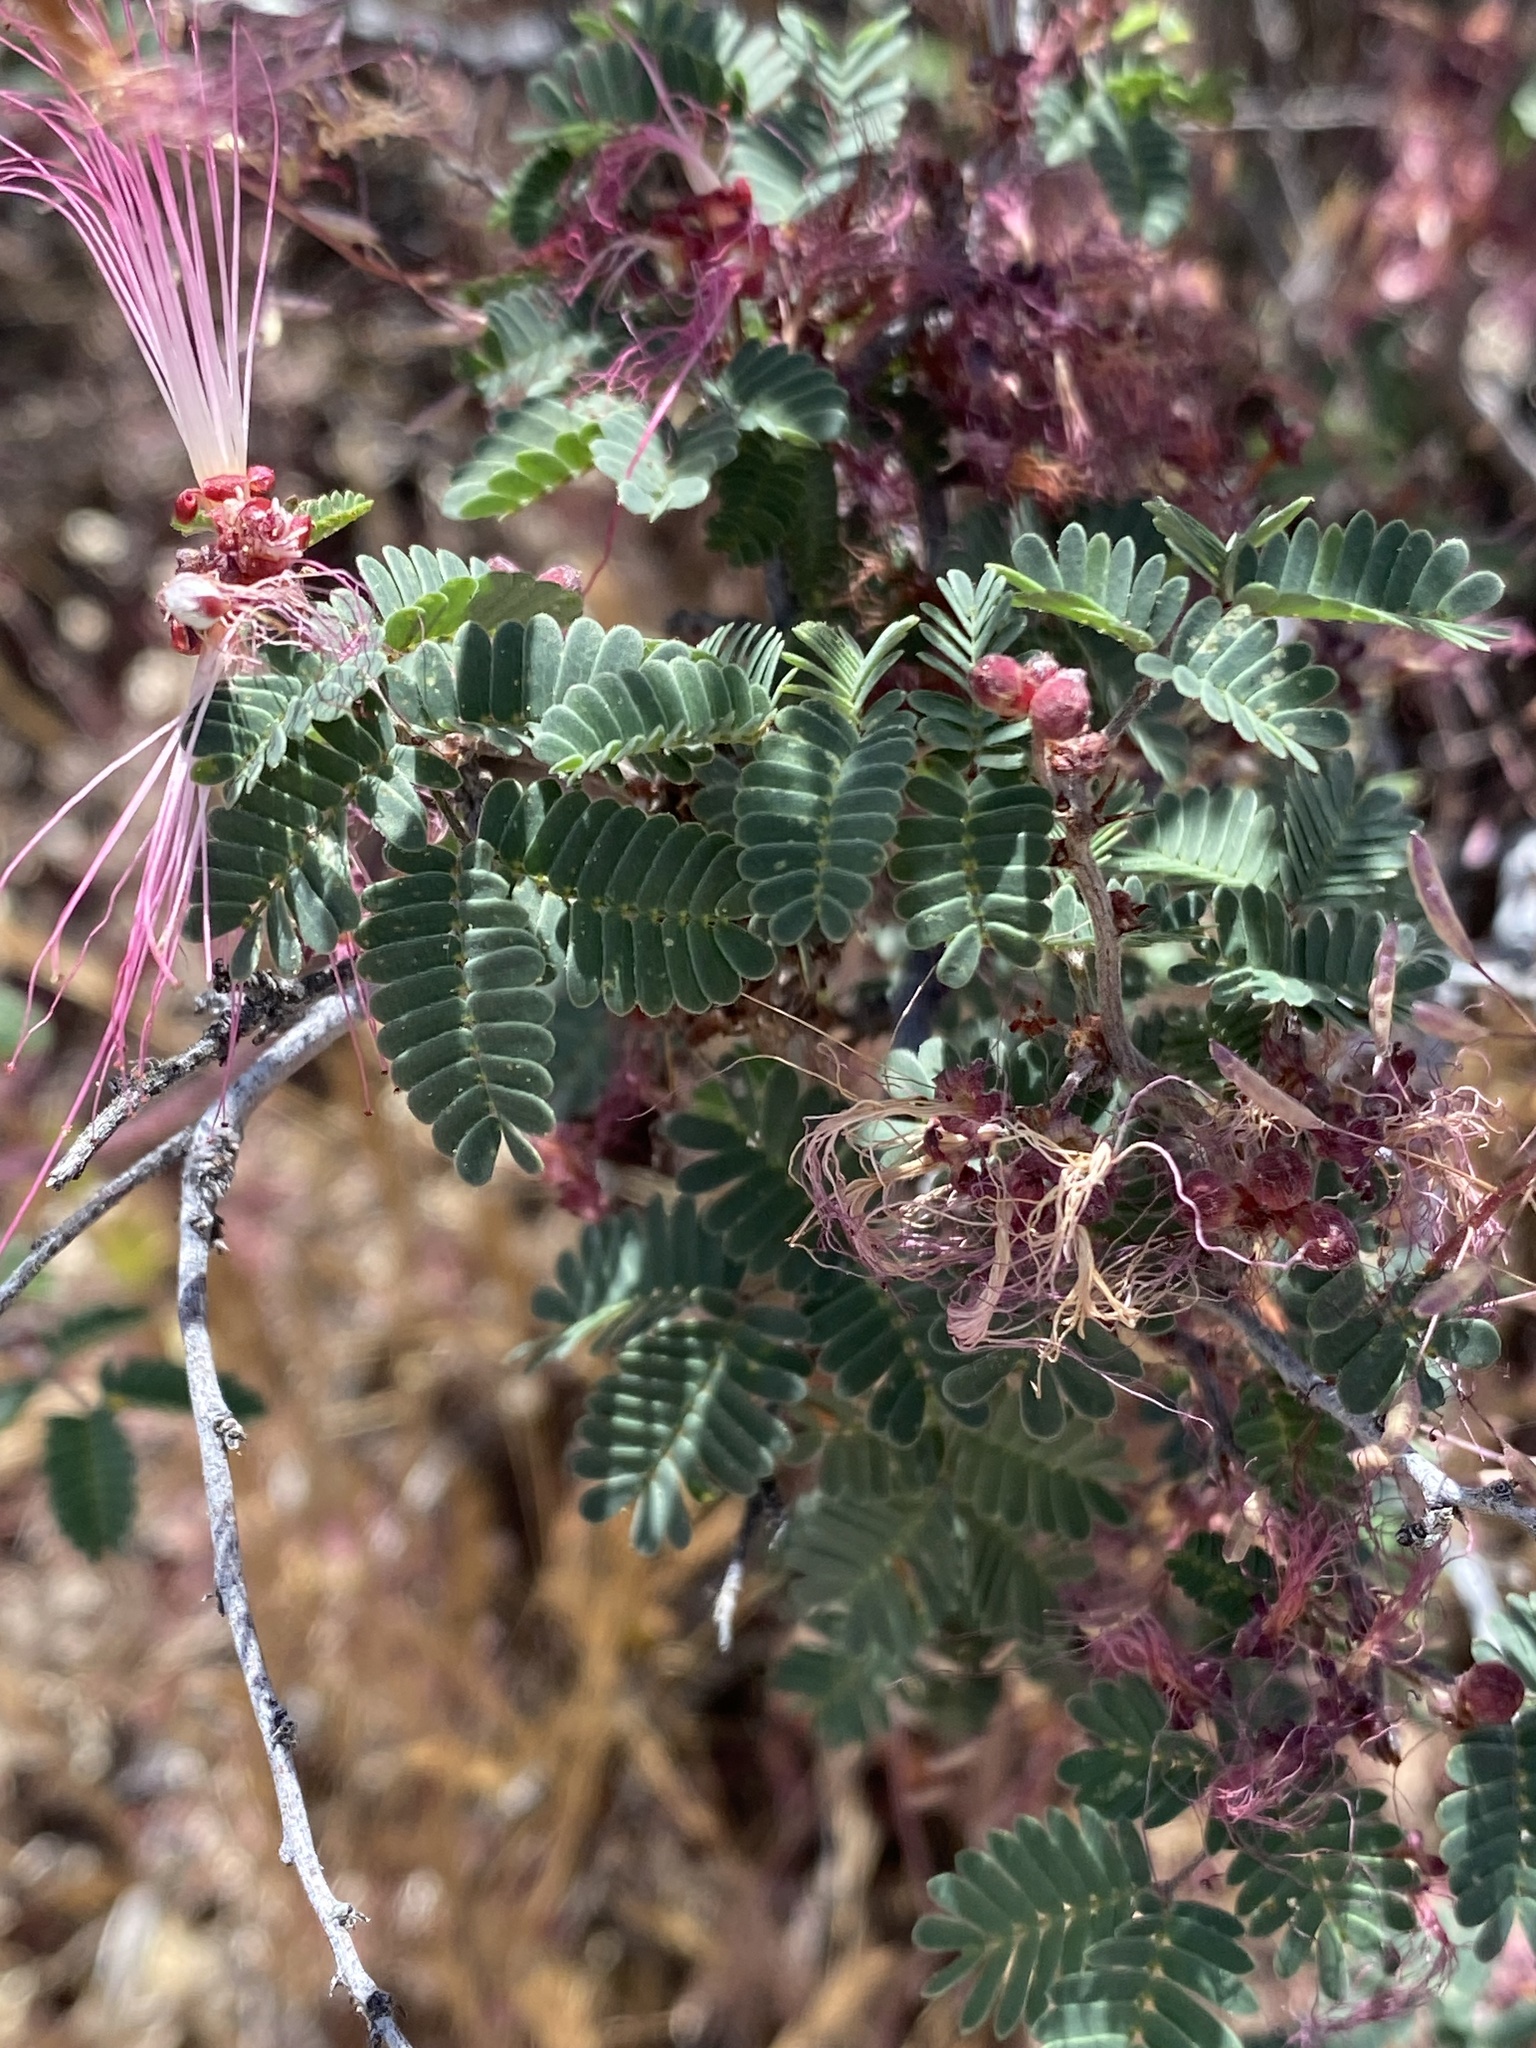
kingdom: Plantae
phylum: Tracheophyta
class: Magnoliopsida
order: Fabales
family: Fabaceae
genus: Calliandra
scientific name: Calliandra eriophylla
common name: Fairy-duster
